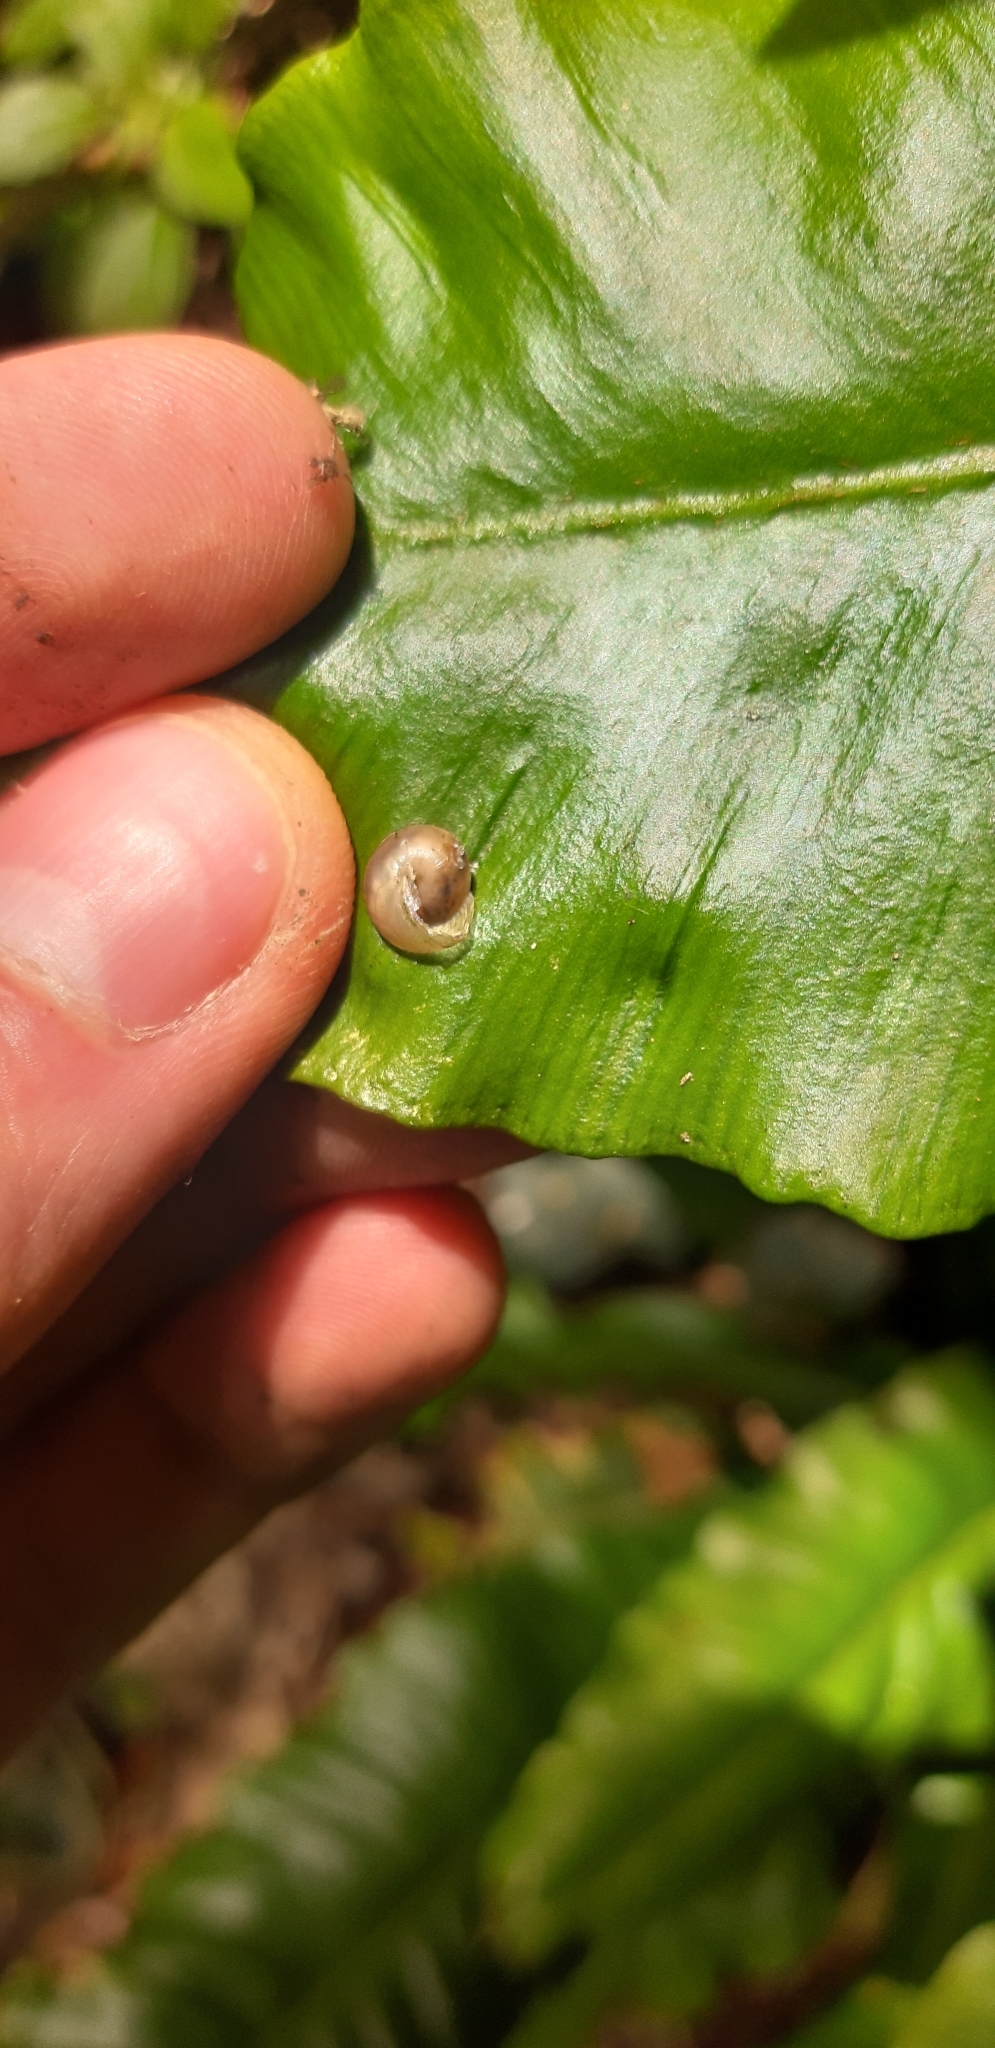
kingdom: Animalia
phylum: Mollusca
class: Gastropoda
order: Stylommatophora
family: Hygromiidae
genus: Hygromia
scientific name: Hygromia cinctella
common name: Girdled snail
